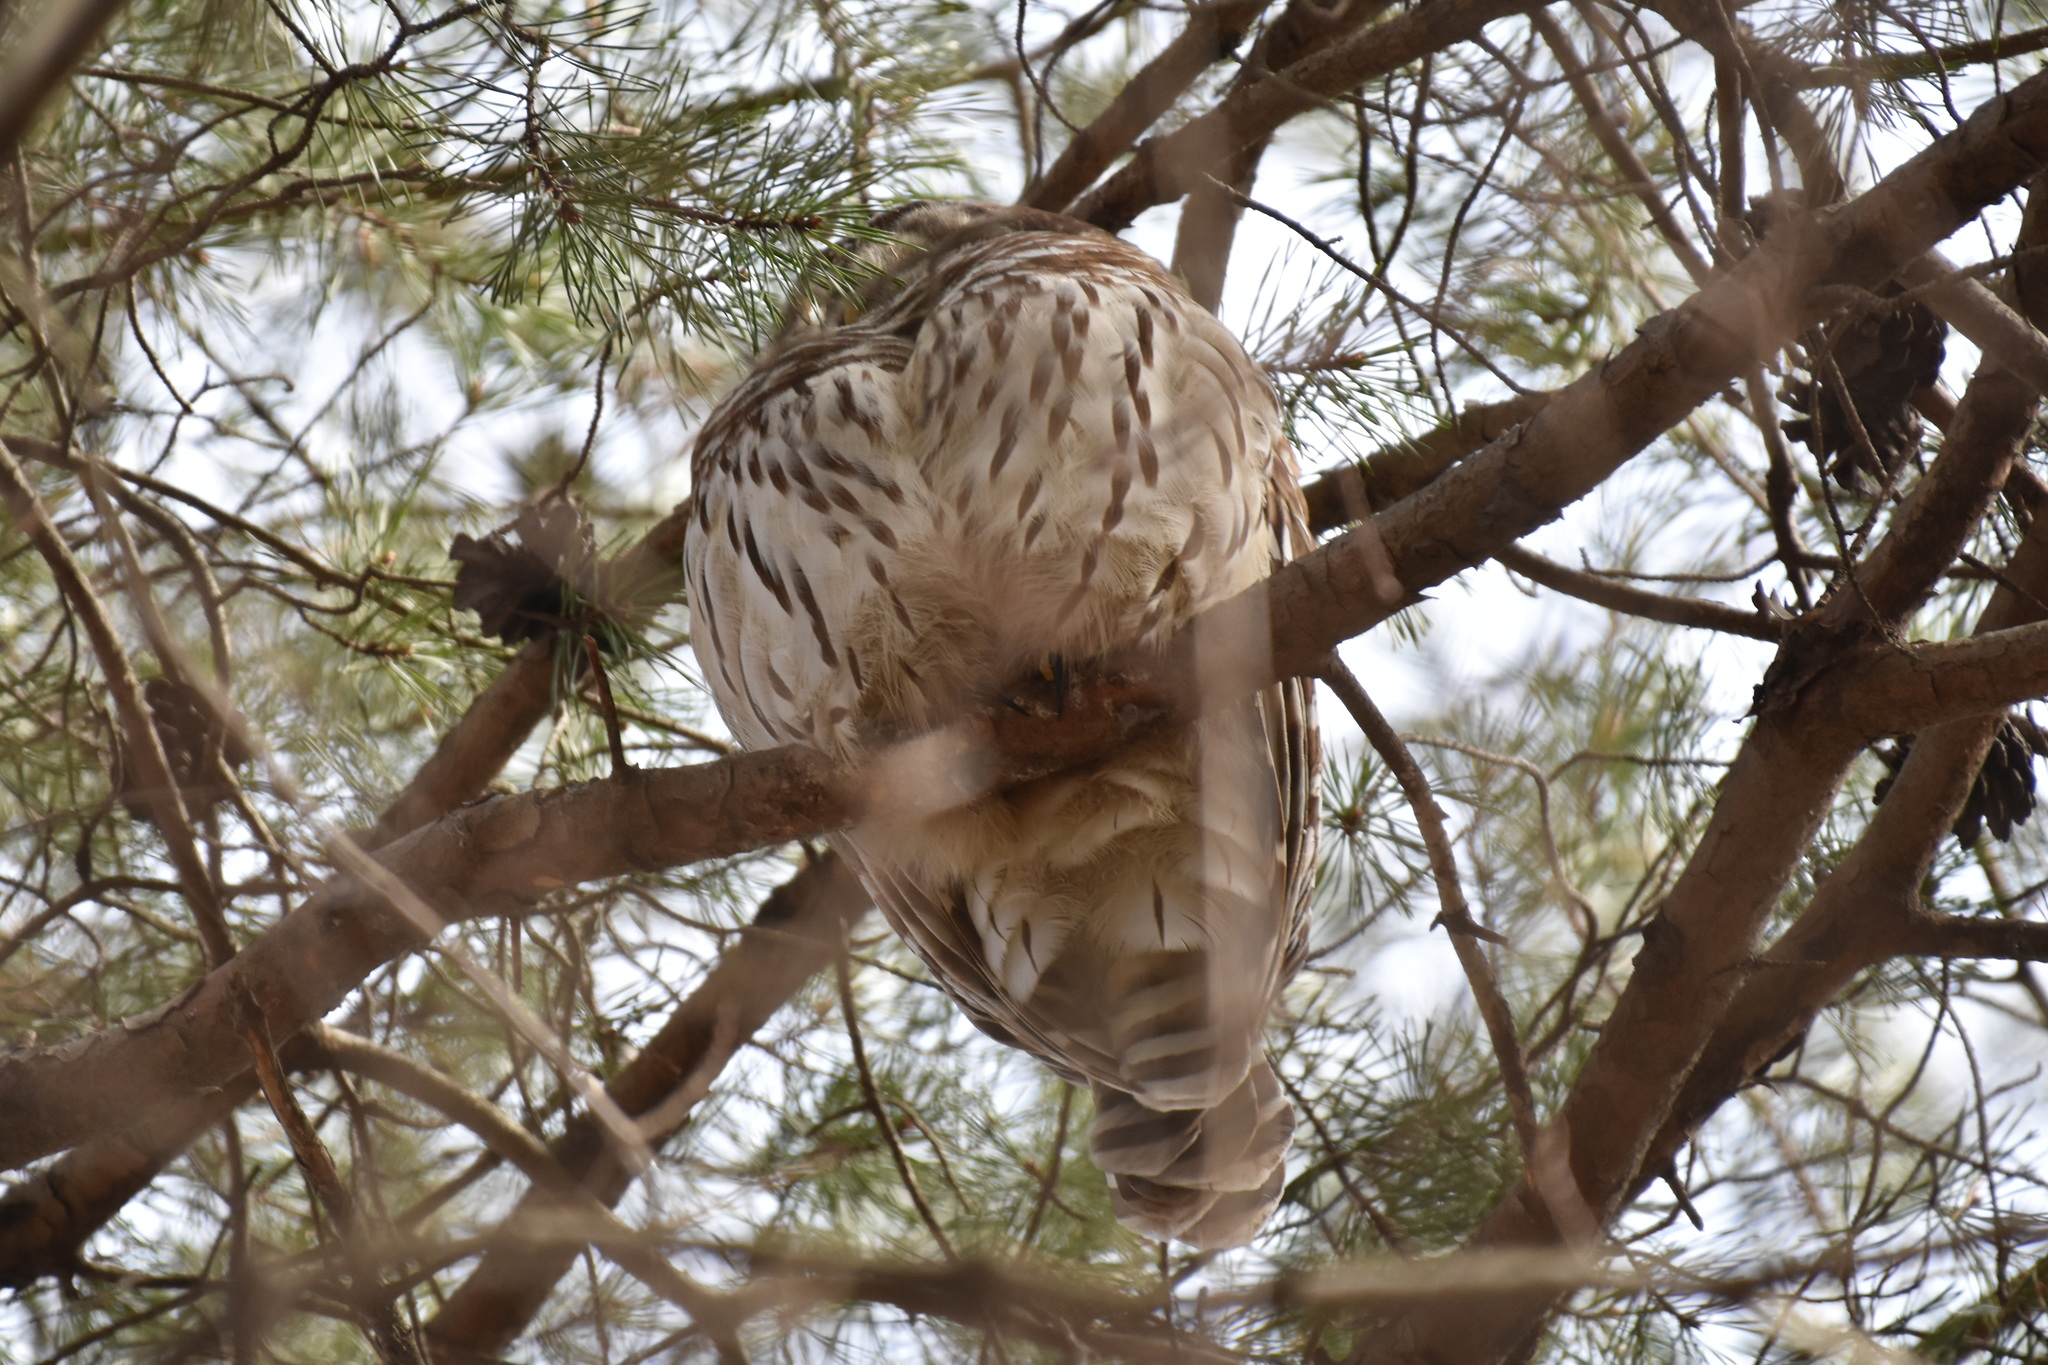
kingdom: Animalia
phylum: Chordata
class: Aves
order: Strigiformes
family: Strigidae
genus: Strix
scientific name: Strix varia
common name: Barred owl
